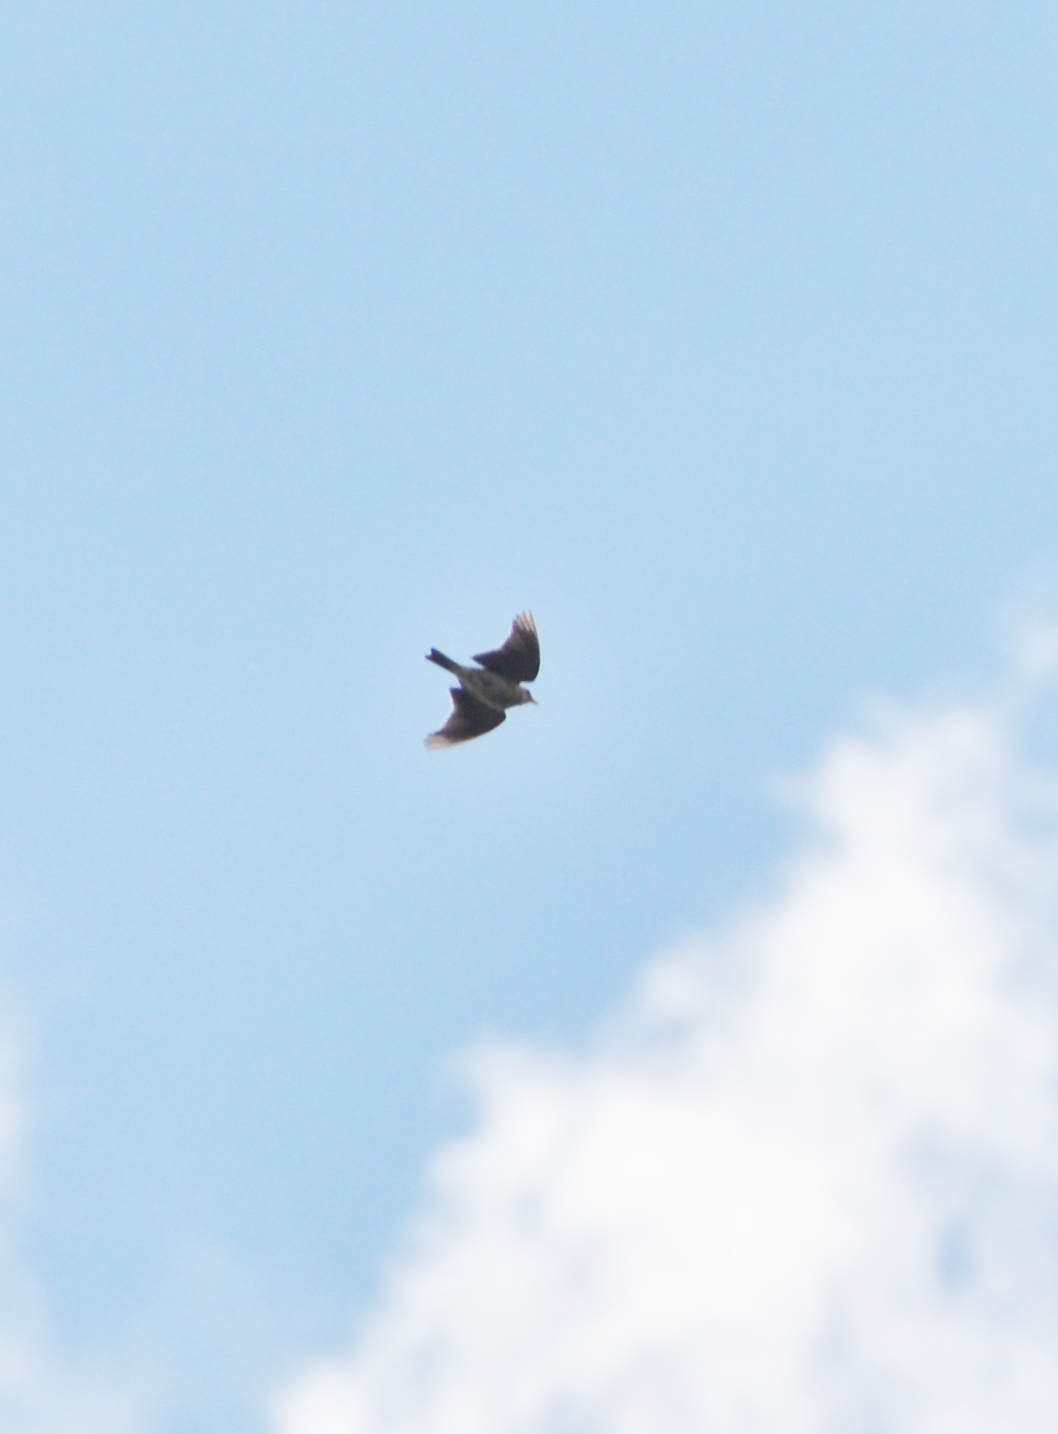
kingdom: Animalia
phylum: Chordata
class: Aves
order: Passeriformes
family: Alaudidae
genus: Alauda
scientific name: Alauda arvensis
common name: Eurasian skylark
